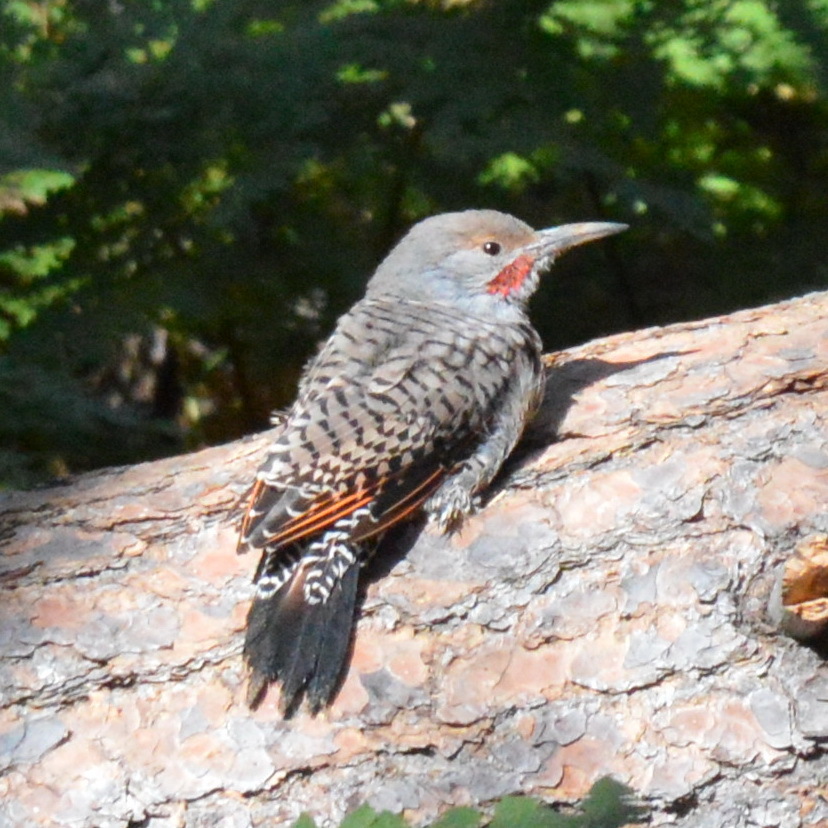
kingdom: Animalia
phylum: Chordata
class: Aves
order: Piciformes
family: Picidae
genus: Colaptes
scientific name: Colaptes auratus
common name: Northern flicker
